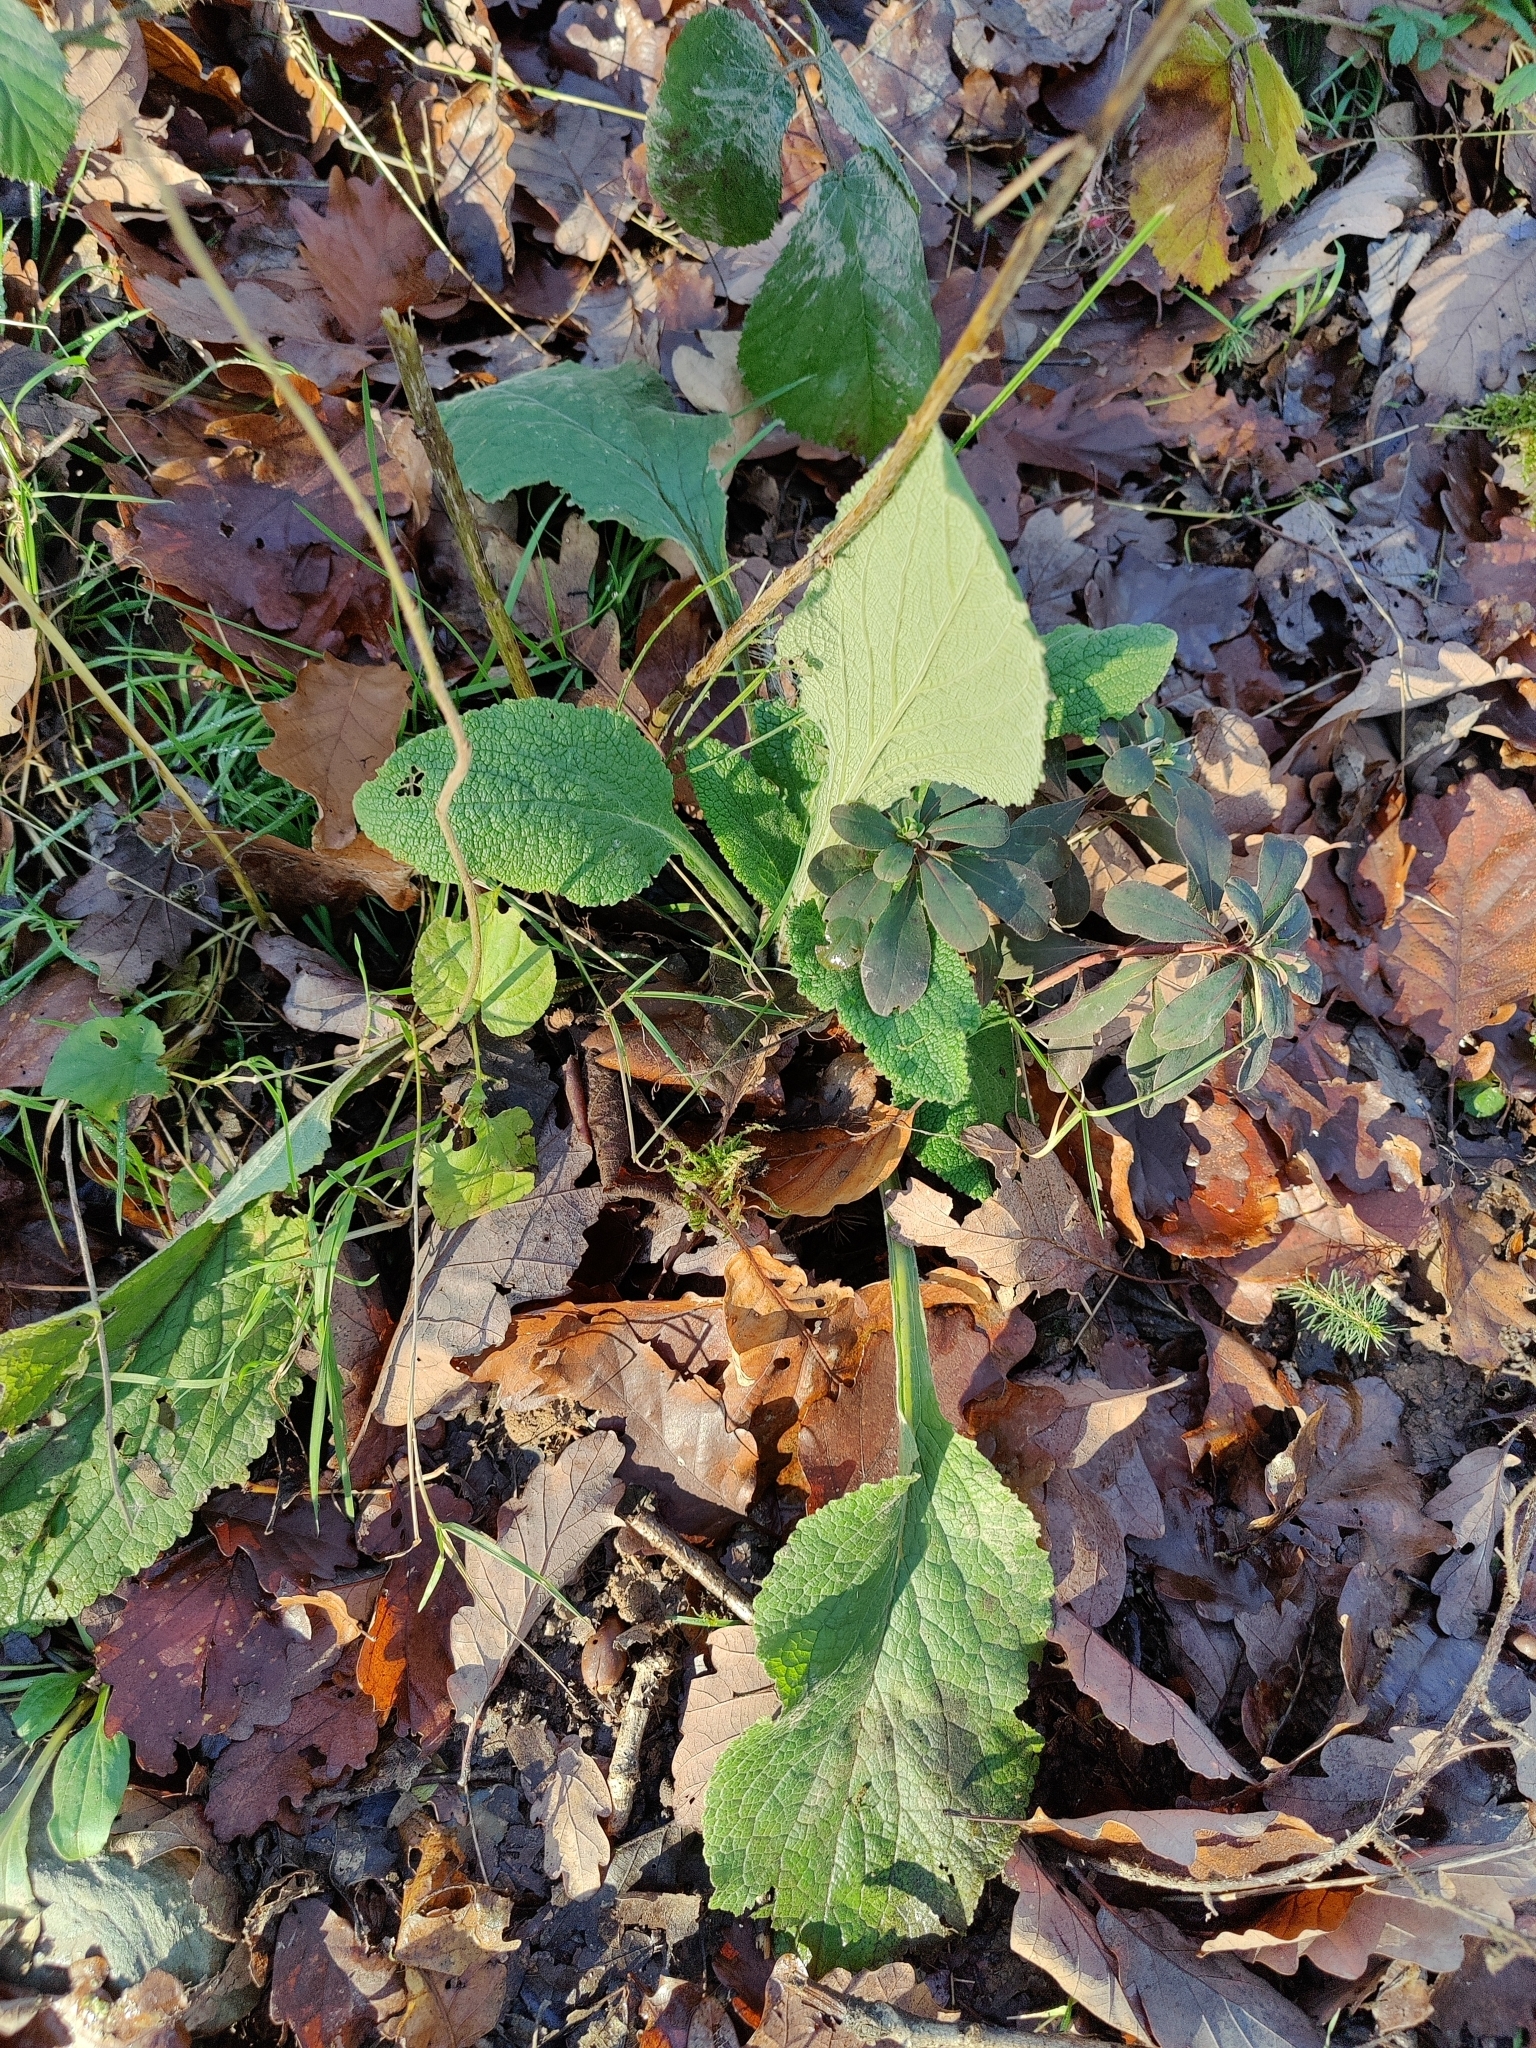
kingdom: Plantae
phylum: Tracheophyta
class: Magnoliopsida
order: Lamiales
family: Plantaginaceae
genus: Digitalis
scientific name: Digitalis purpurea
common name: Foxglove
